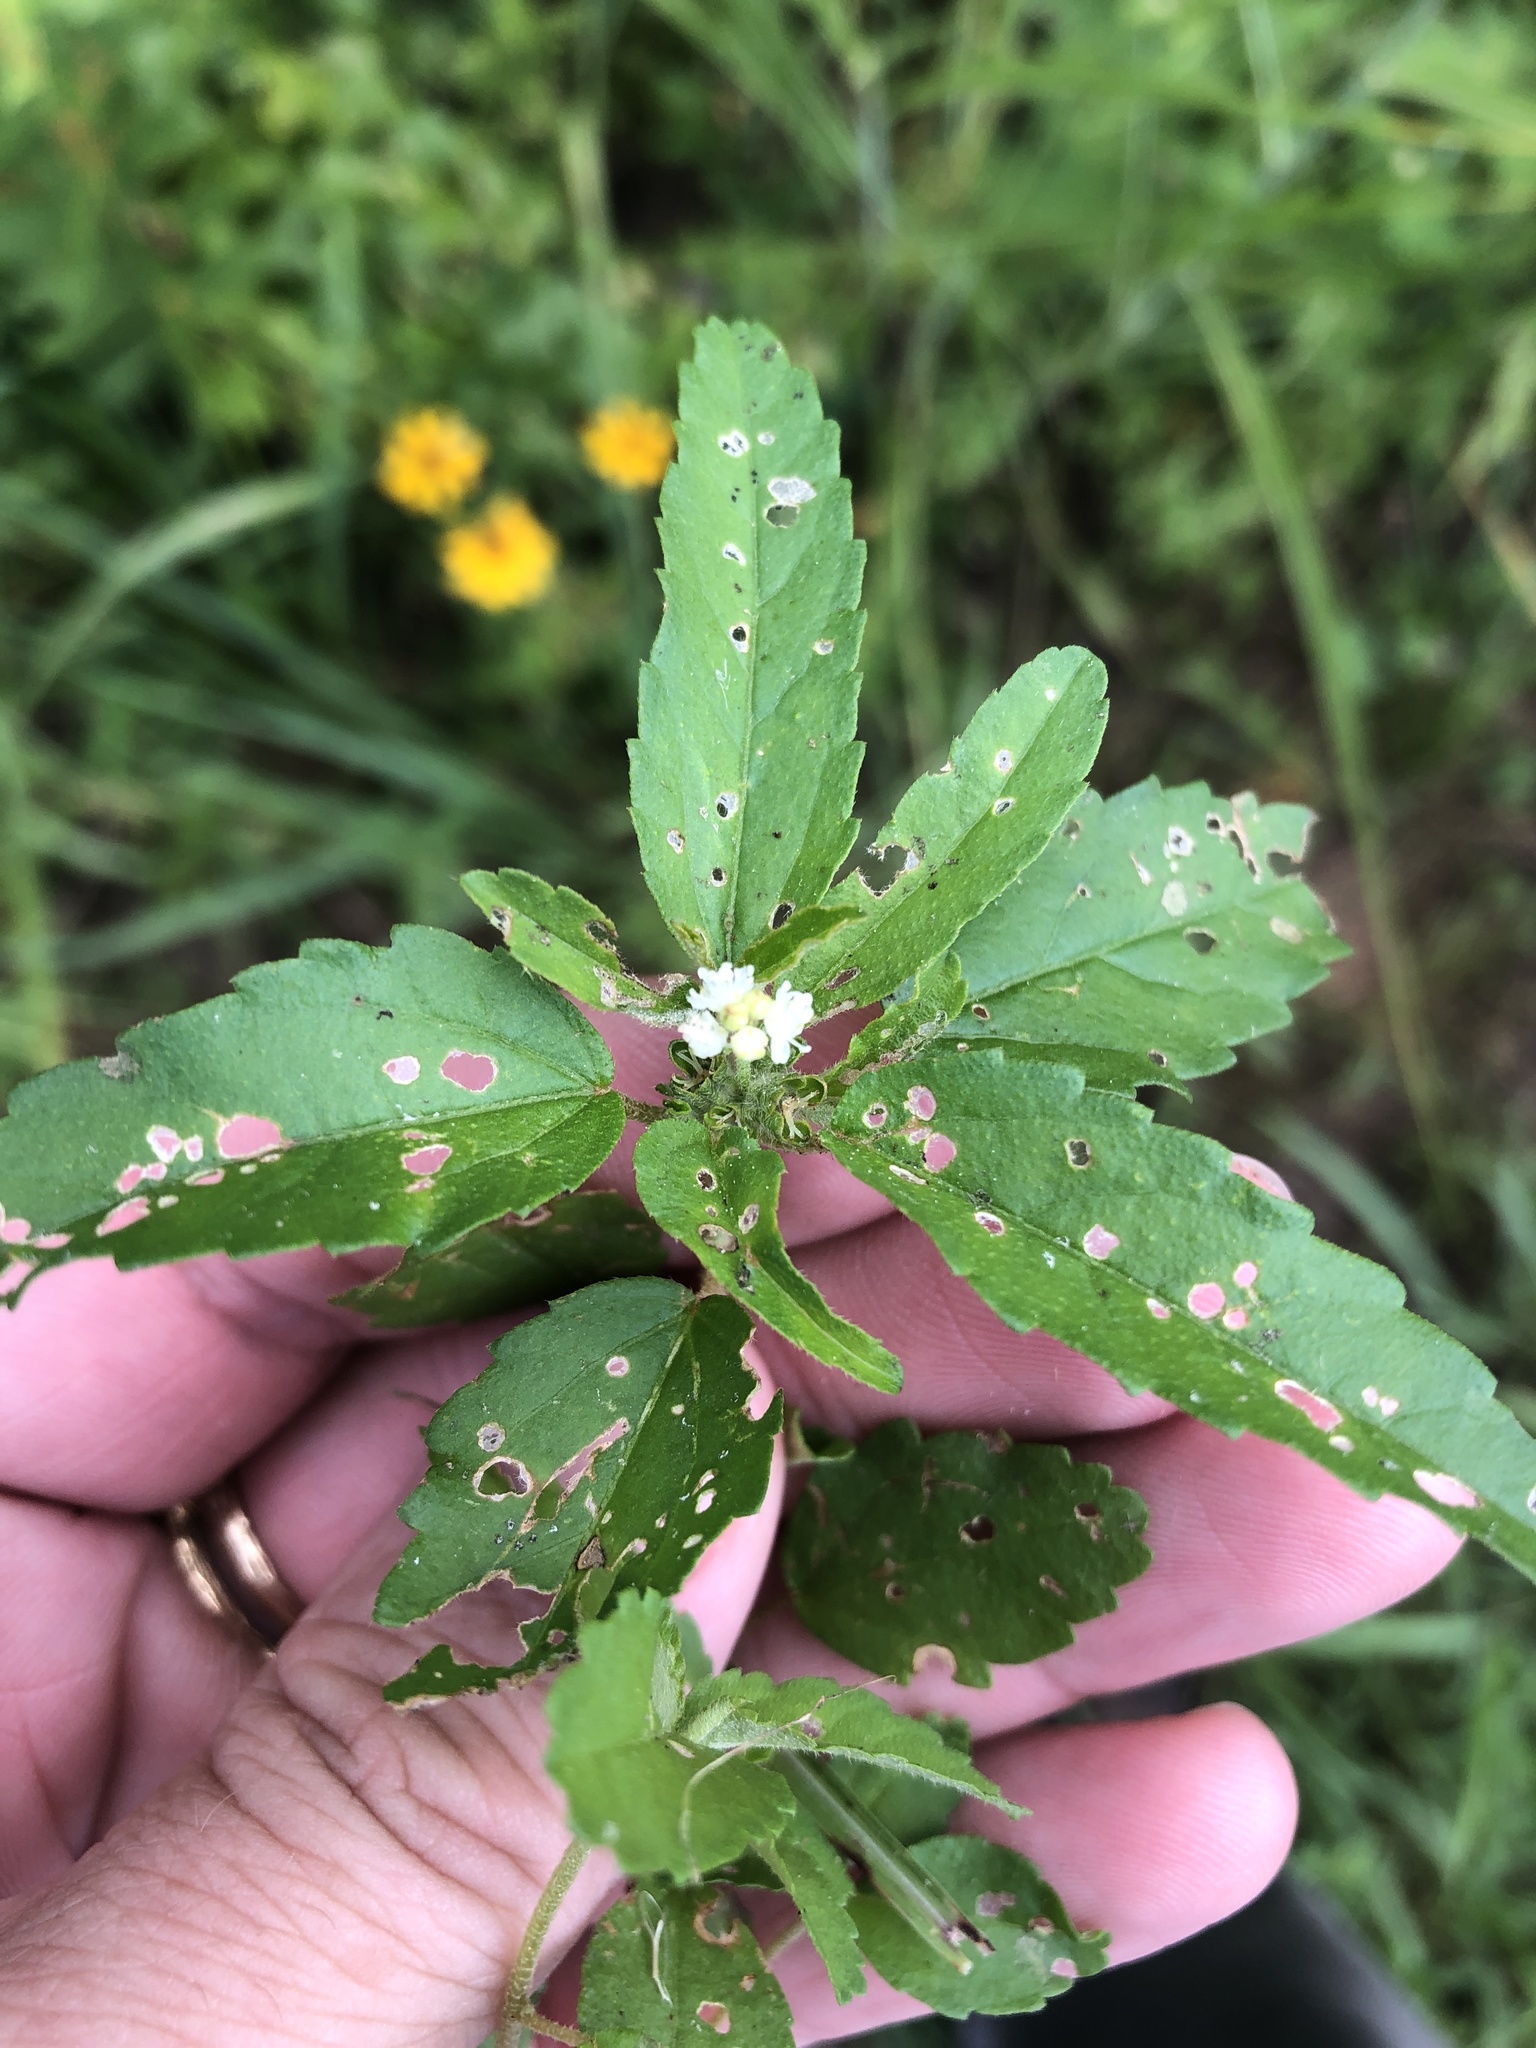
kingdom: Plantae
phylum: Tracheophyta
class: Magnoliopsida
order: Malpighiales
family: Euphorbiaceae
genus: Croton
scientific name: Croton glandulosus
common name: Tropic croton
